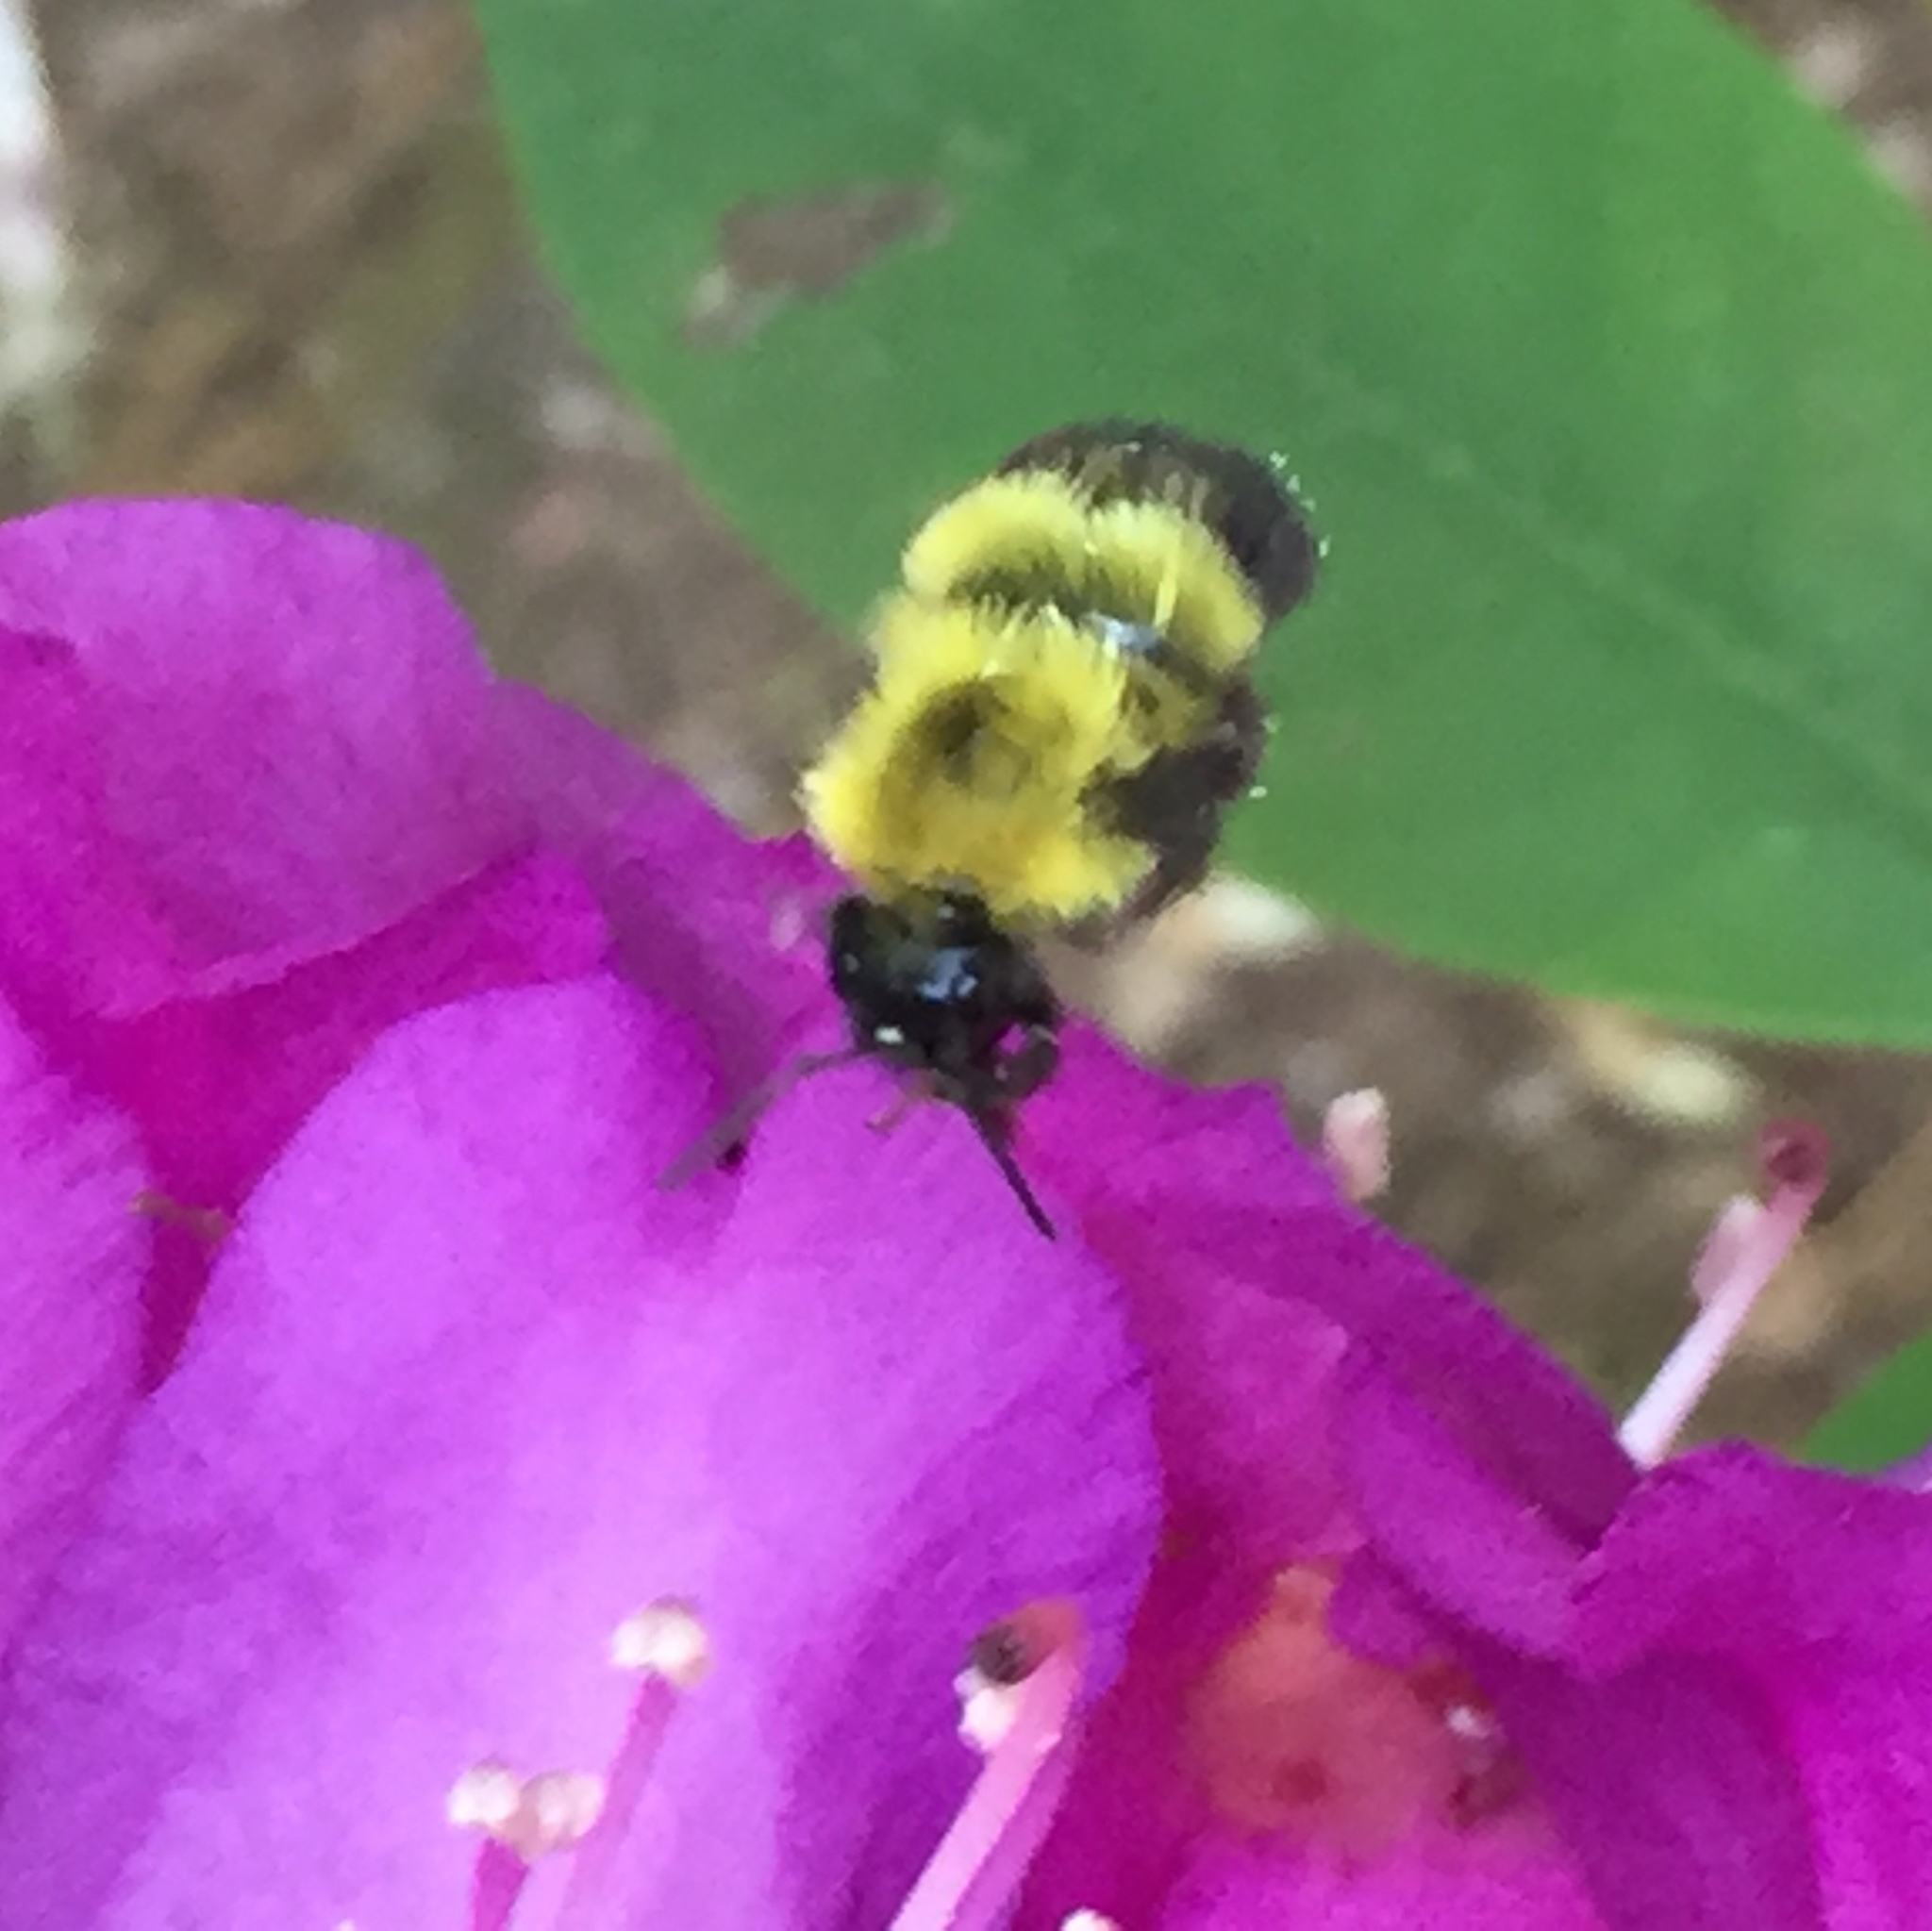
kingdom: Animalia
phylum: Arthropoda
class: Insecta
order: Hymenoptera
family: Apidae
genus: Bombus
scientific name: Bombus perplexus
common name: Confusing bumble bee
